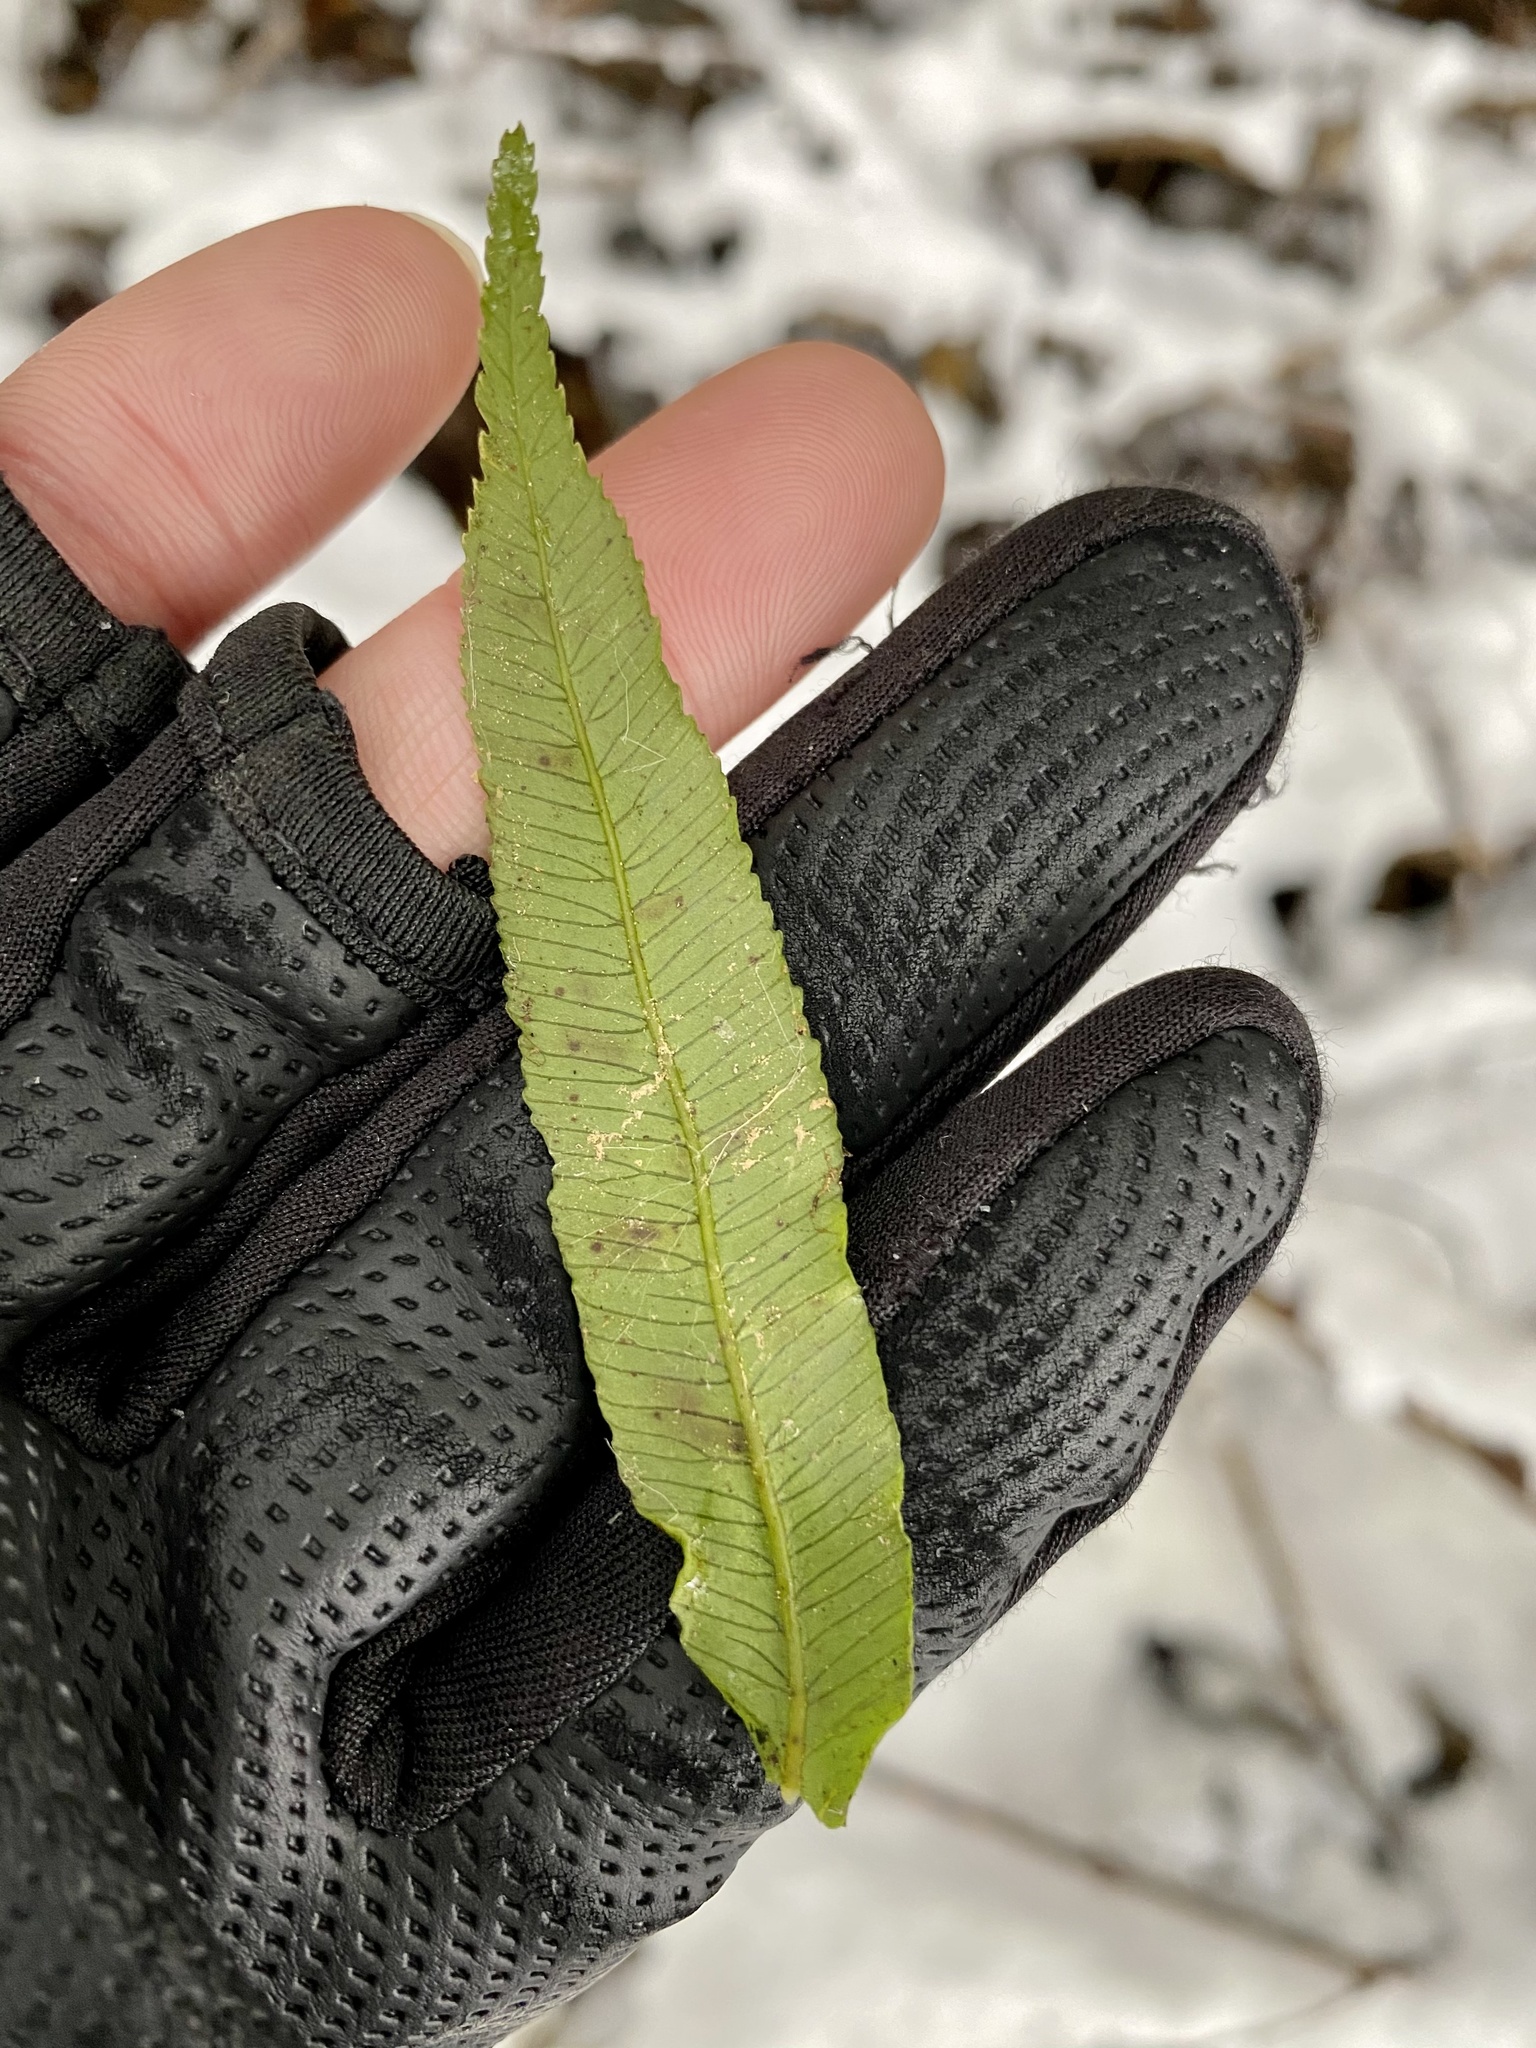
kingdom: Plantae
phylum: Tracheophyta
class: Polypodiopsida
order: Cyatheales
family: Plagiogyriaceae
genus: Plagiogyria
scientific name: Plagiogyria euphlebia
